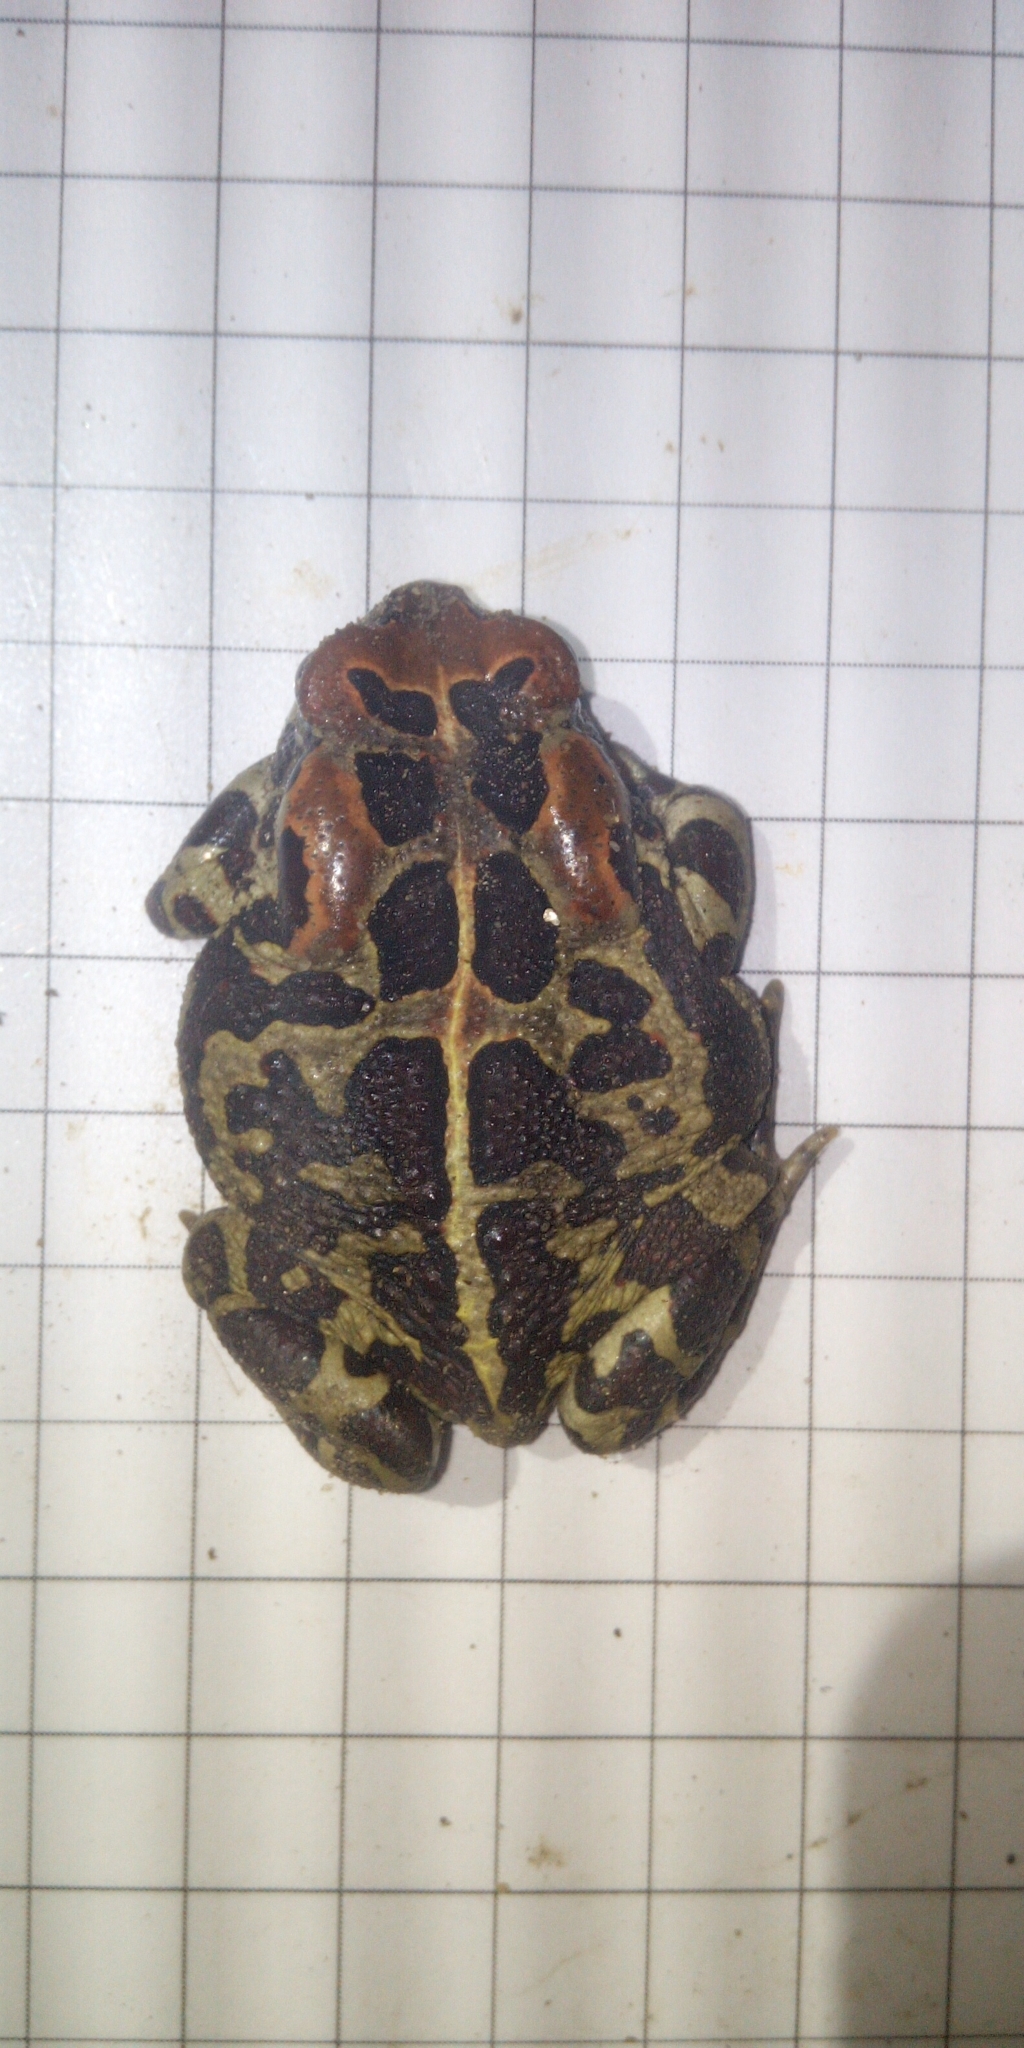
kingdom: Animalia
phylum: Chordata
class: Amphibia
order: Anura
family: Bufonidae
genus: Sclerophrys
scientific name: Sclerophrys pantherina
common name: Panther toad
